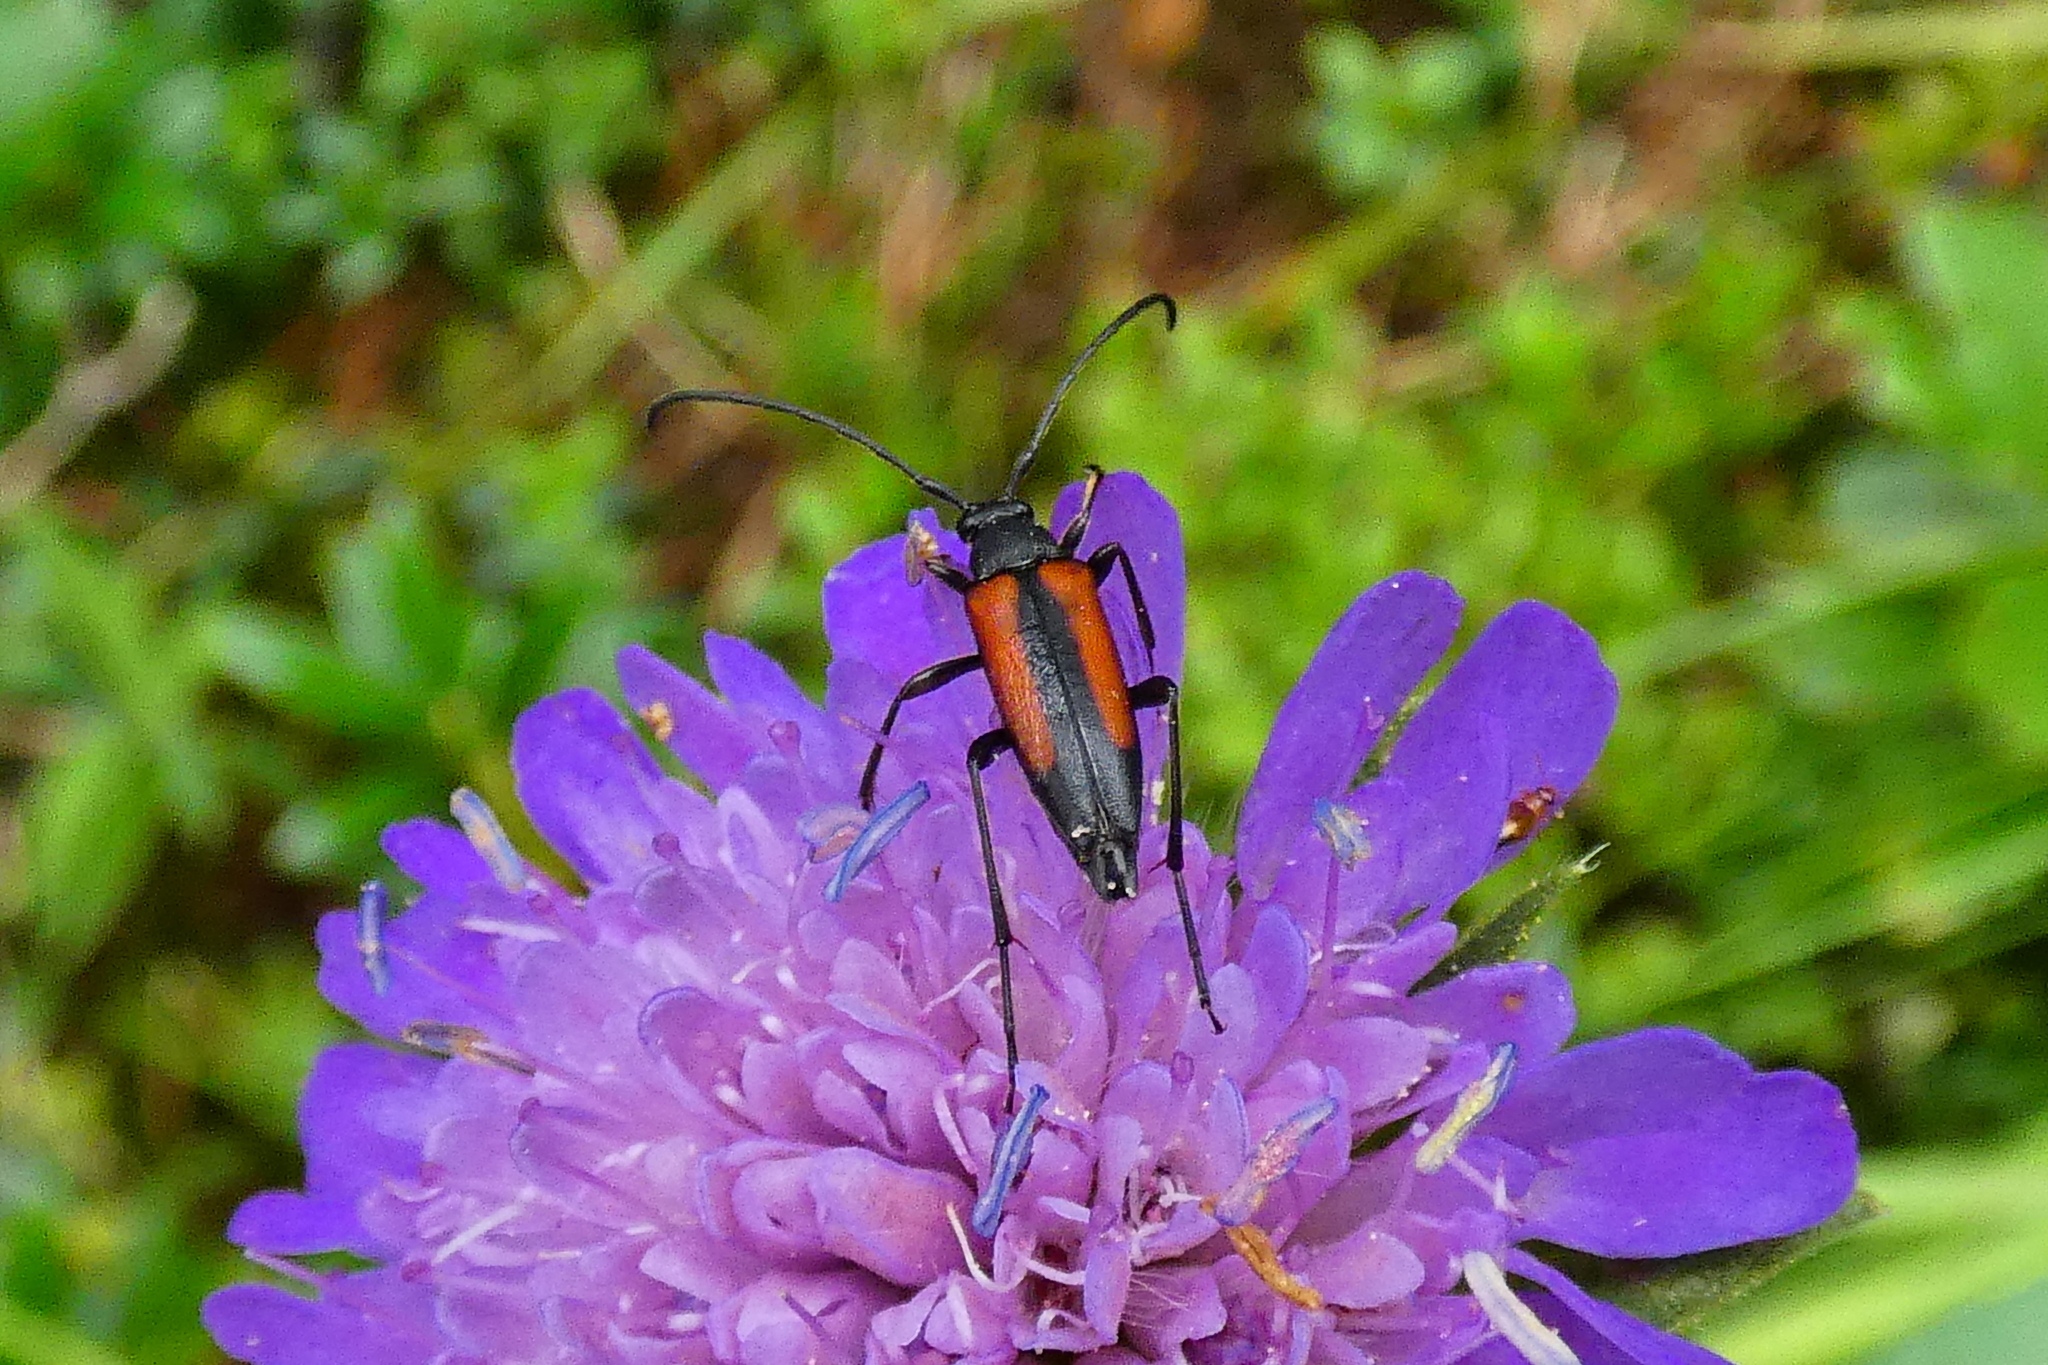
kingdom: Animalia
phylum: Arthropoda
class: Insecta
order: Coleoptera
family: Cerambycidae
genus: Stenurella
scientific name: Stenurella melanura
